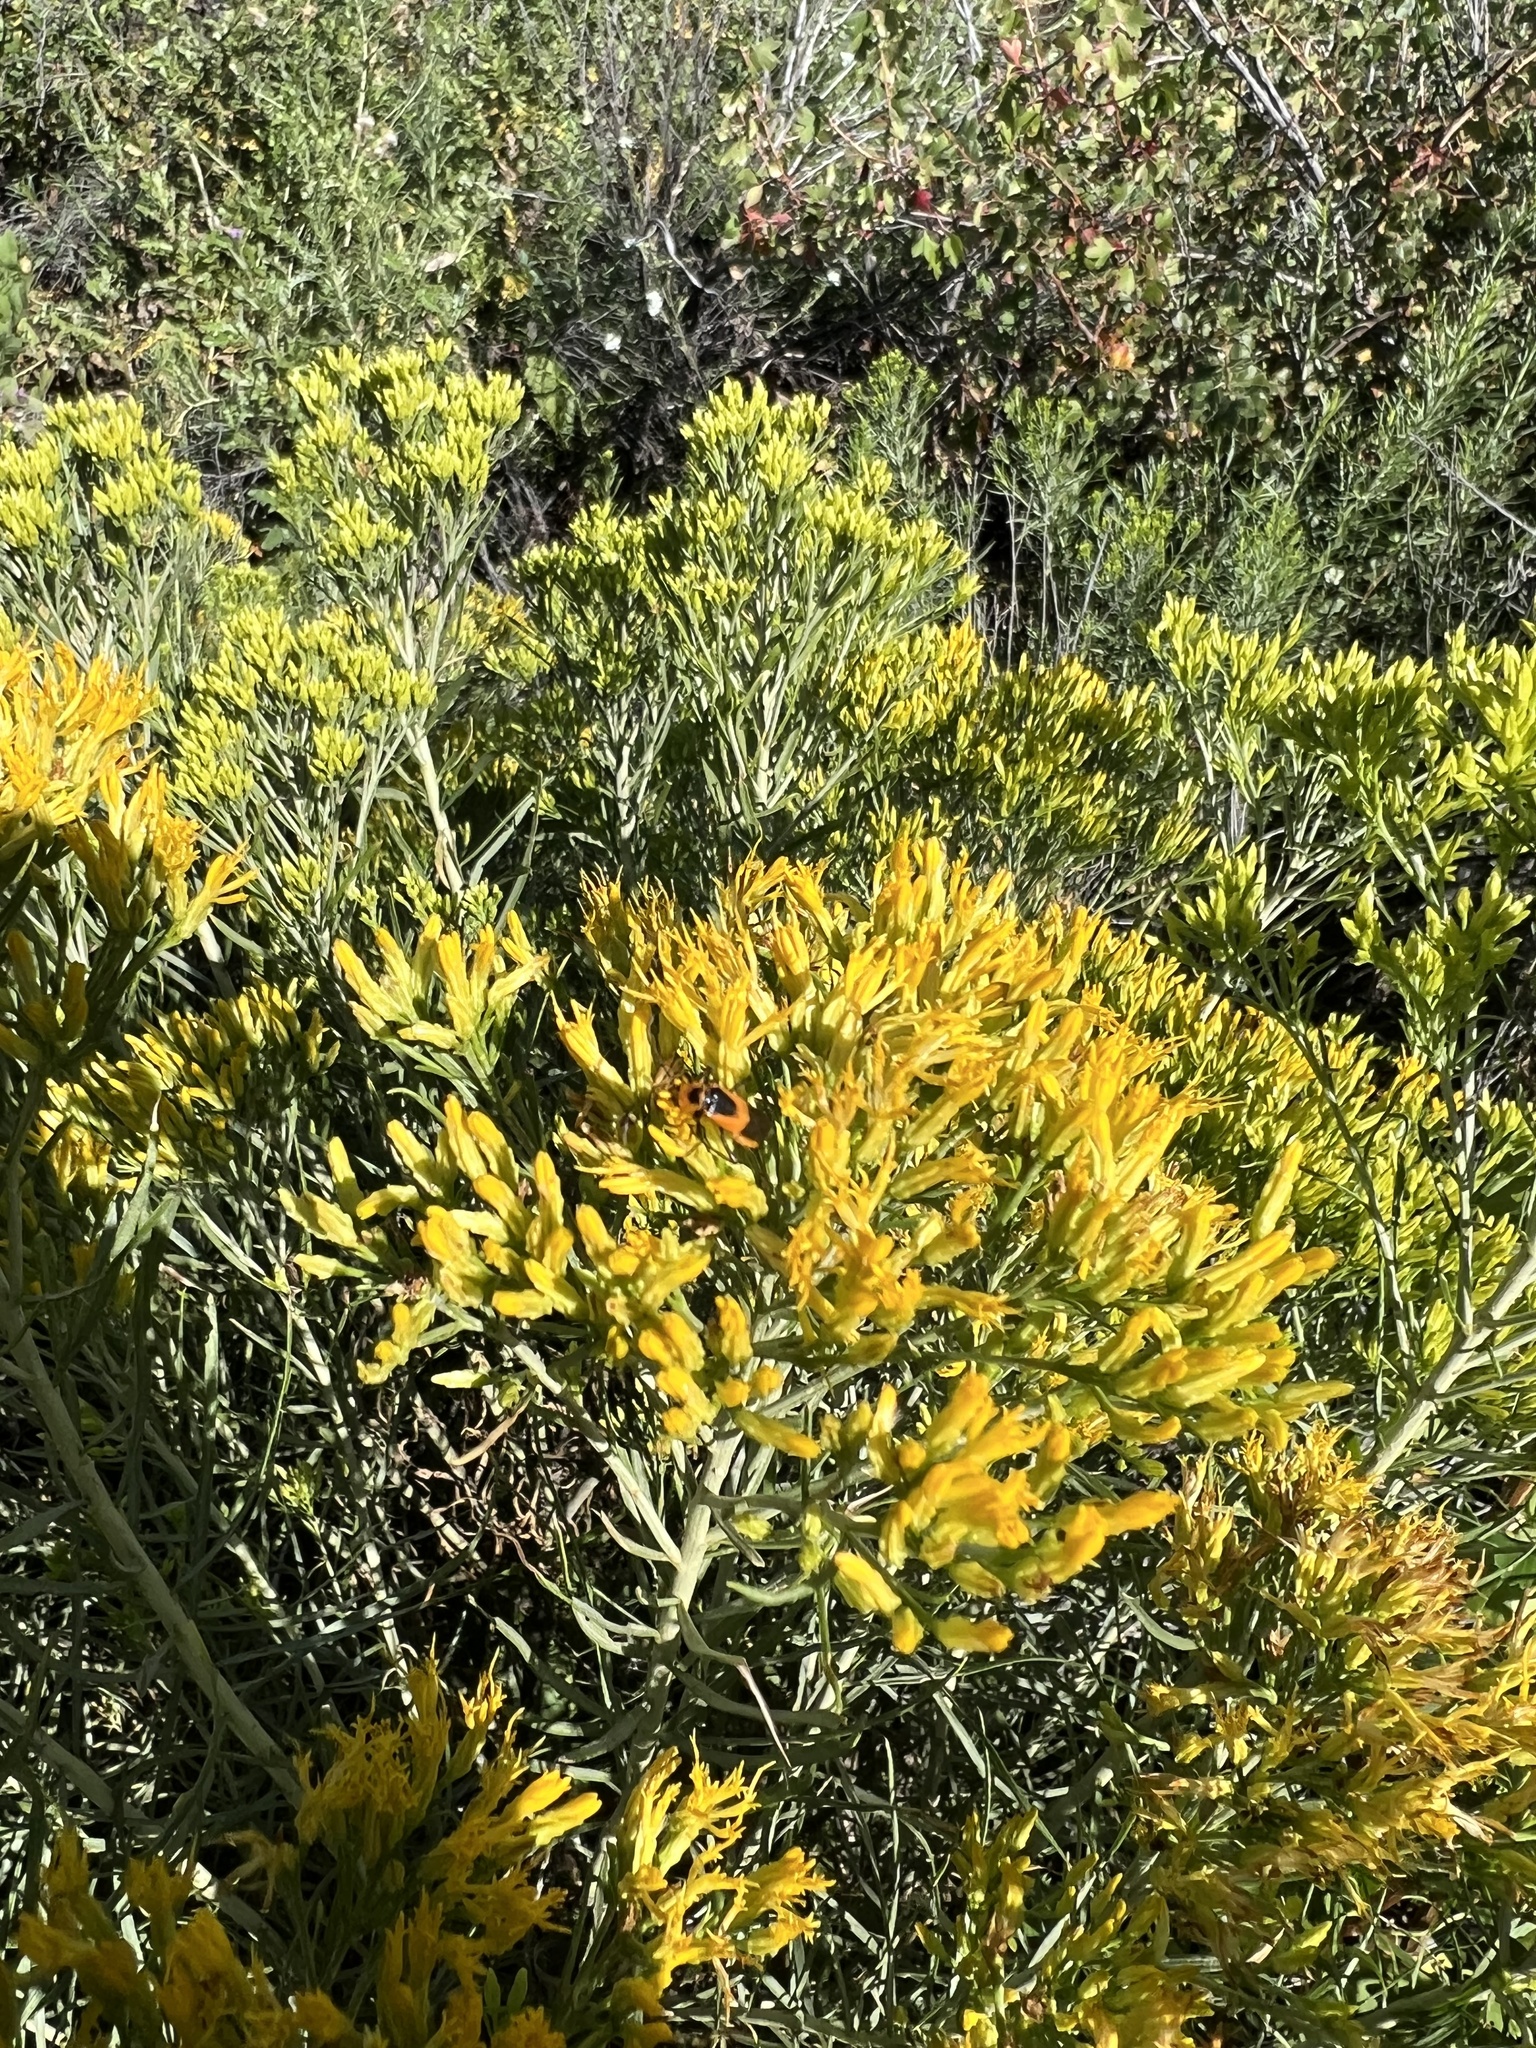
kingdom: Animalia
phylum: Arthropoda
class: Insecta
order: Coleoptera
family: Cantharidae
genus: Chauliognathus
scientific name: Chauliognathus basalis
